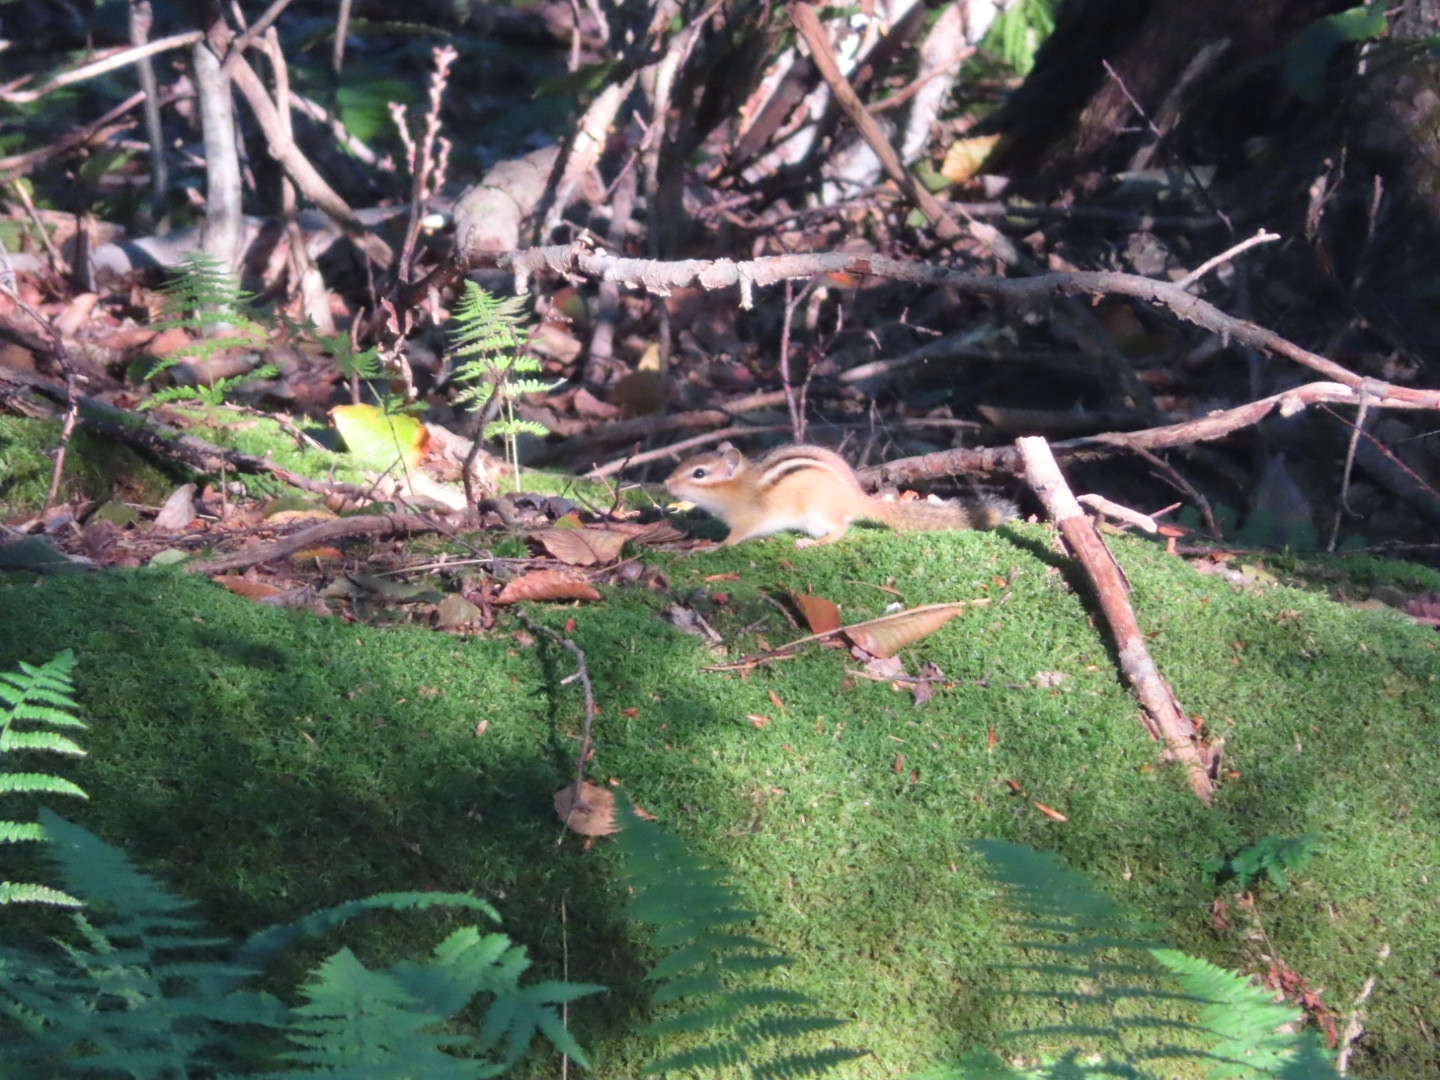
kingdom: Animalia
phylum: Chordata
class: Mammalia
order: Rodentia
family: Sciuridae
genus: Tamias
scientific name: Tamias striatus
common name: Eastern chipmunk
